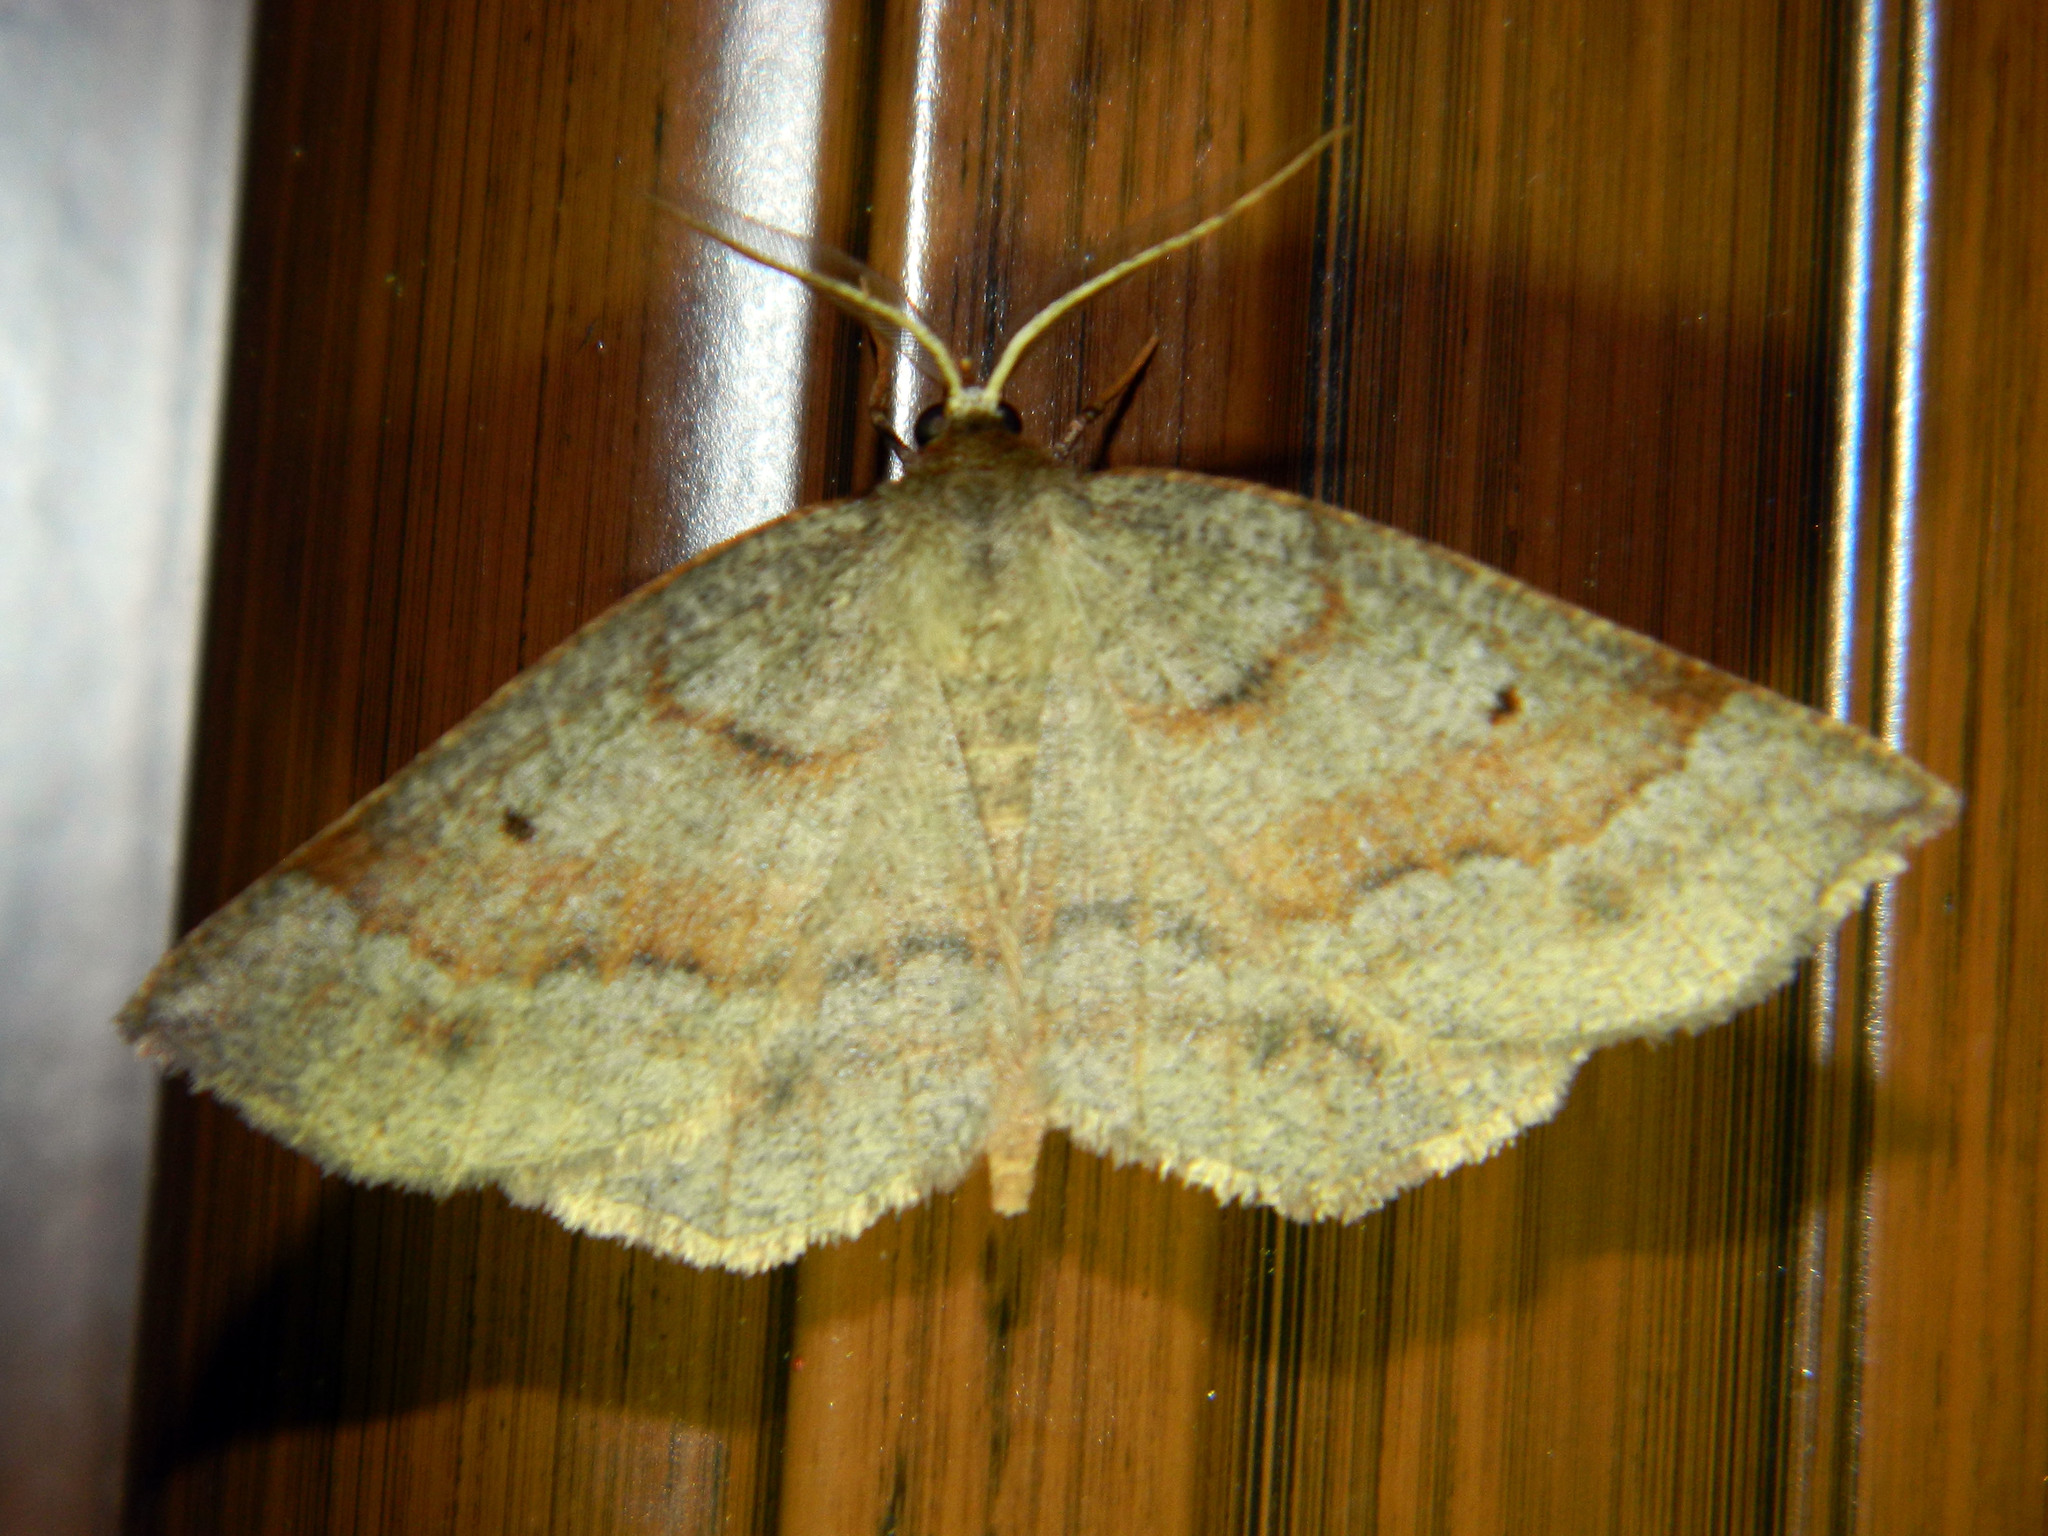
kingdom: Animalia
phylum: Arthropoda
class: Insecta
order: Lepidoptera
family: Geometridae
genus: Metarranthis
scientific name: Metarranthis duaria
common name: Ruddy metarranthis moth
